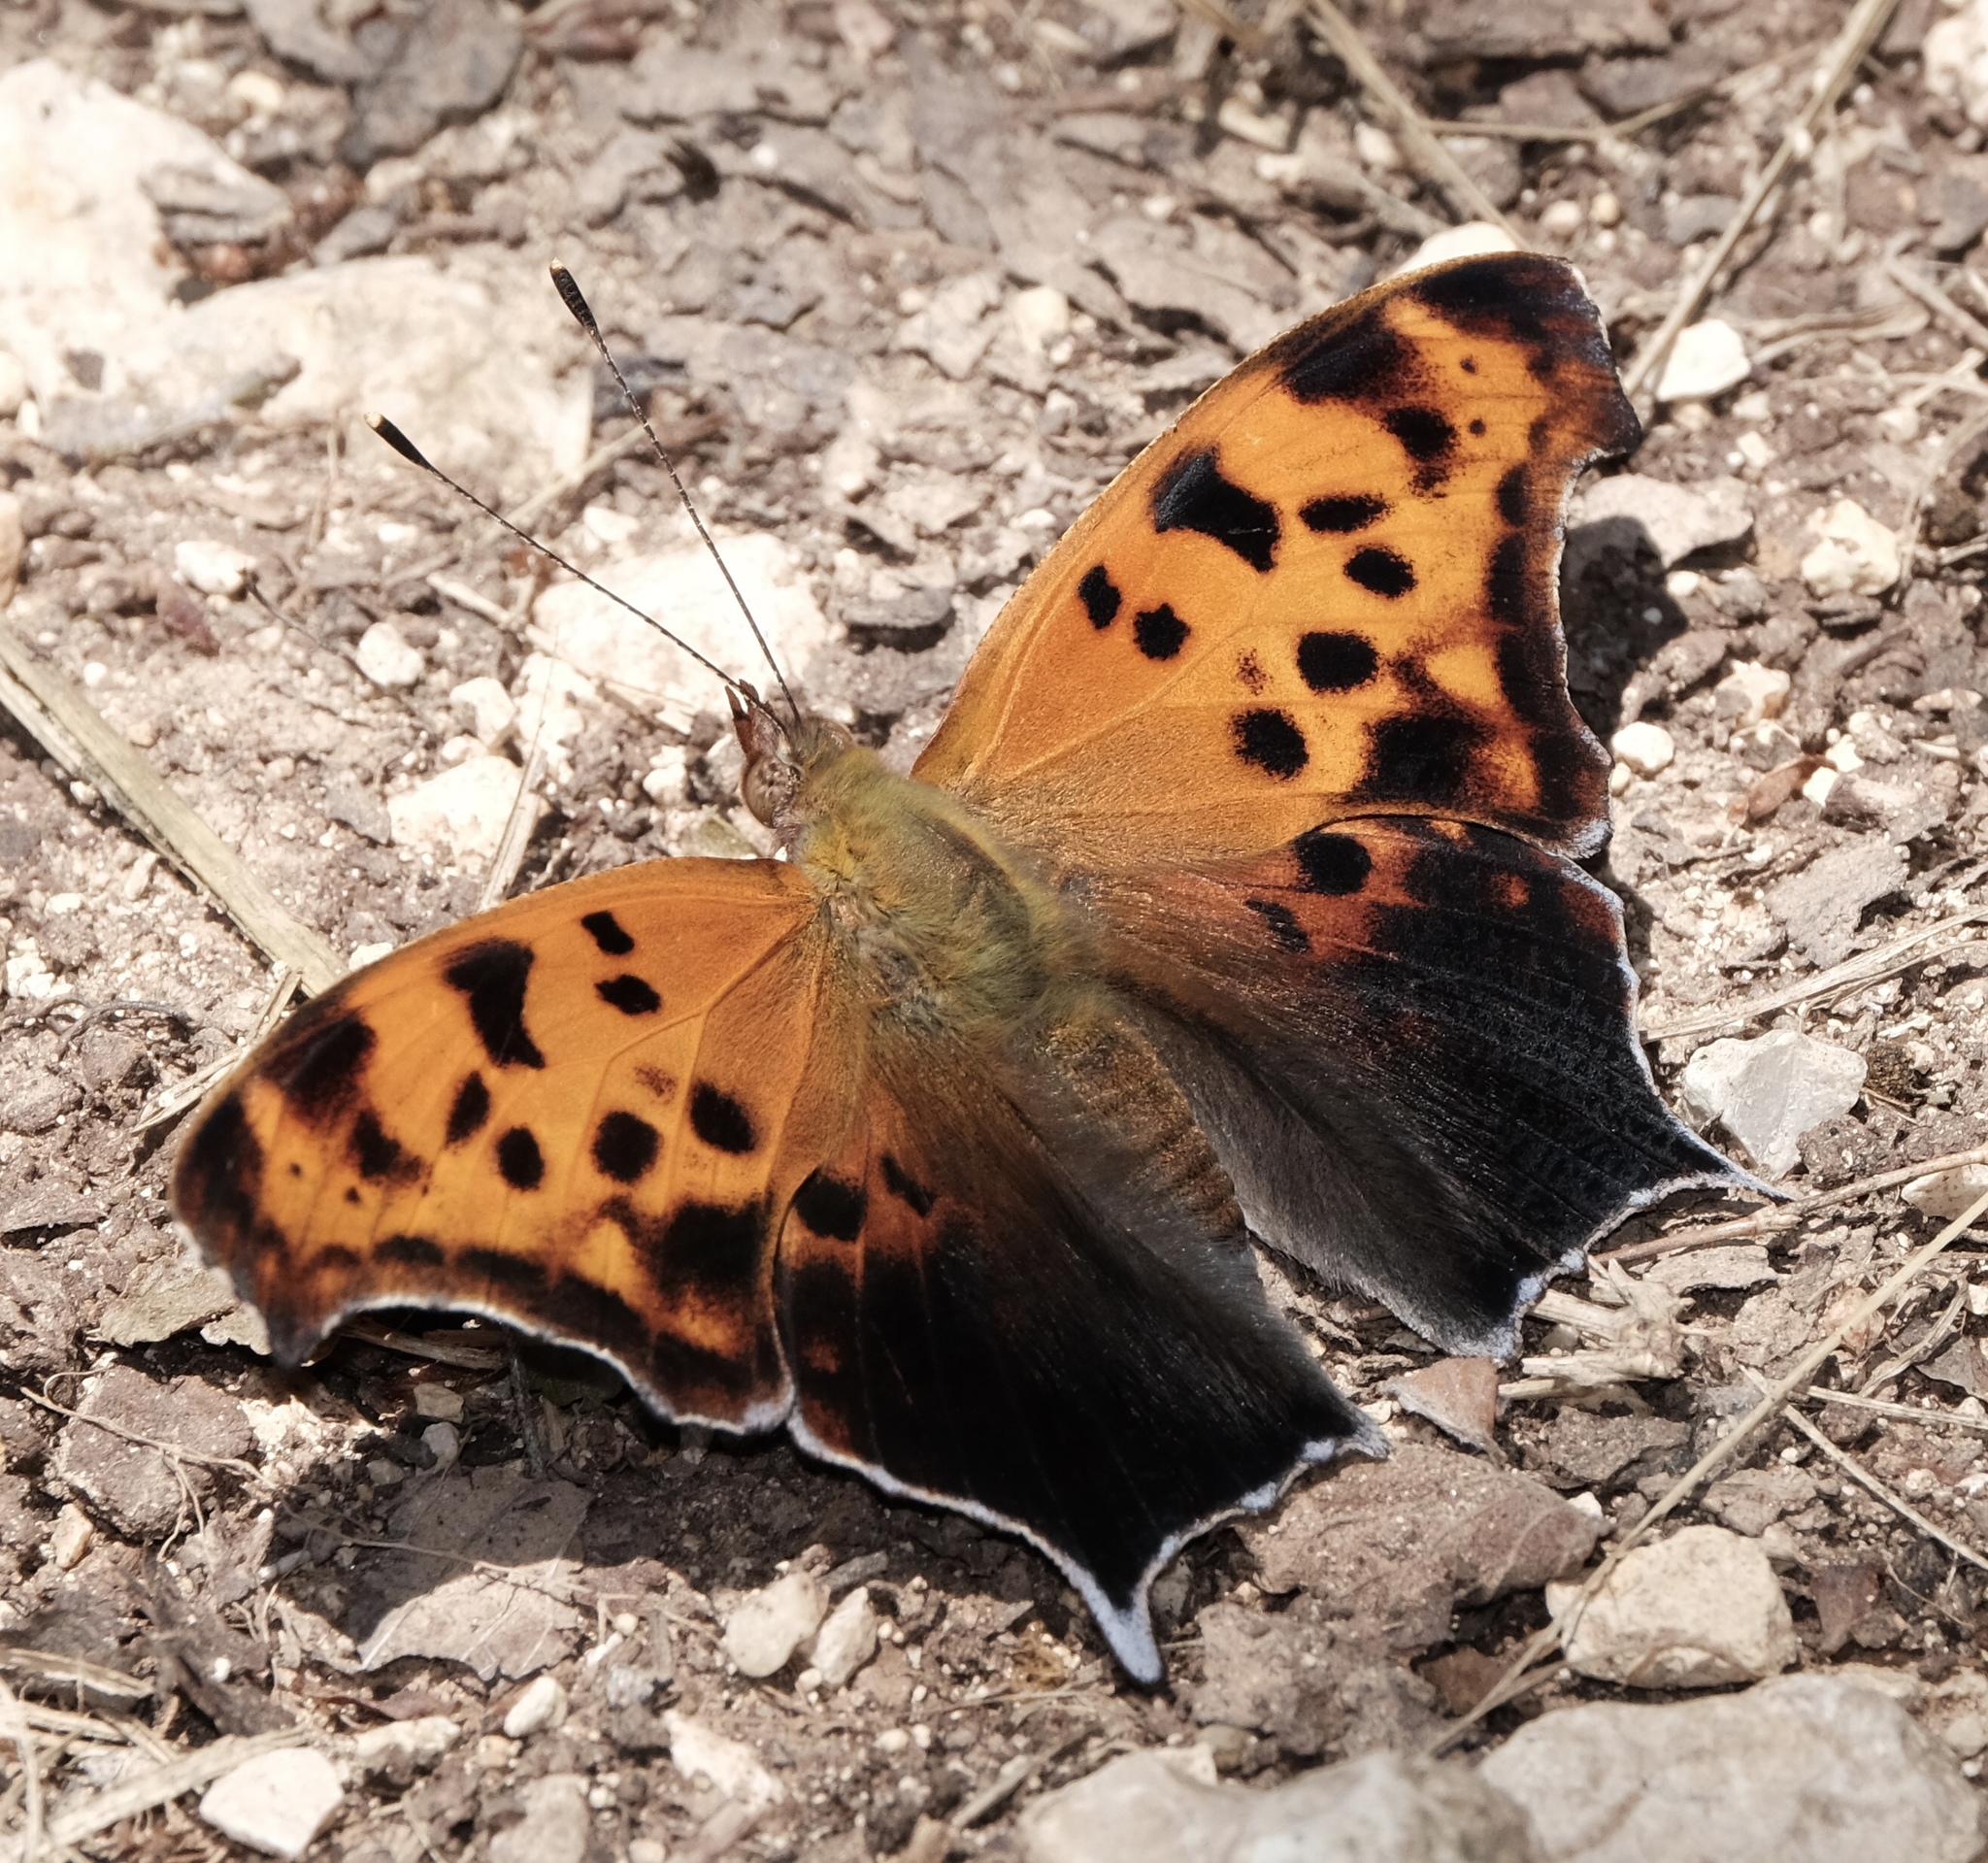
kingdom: Animalia
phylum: Arthropoda
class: Insecta
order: Lepidoptera
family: Nymphalidae
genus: Polygonia
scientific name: Polygonia interrogationis
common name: Question mark
